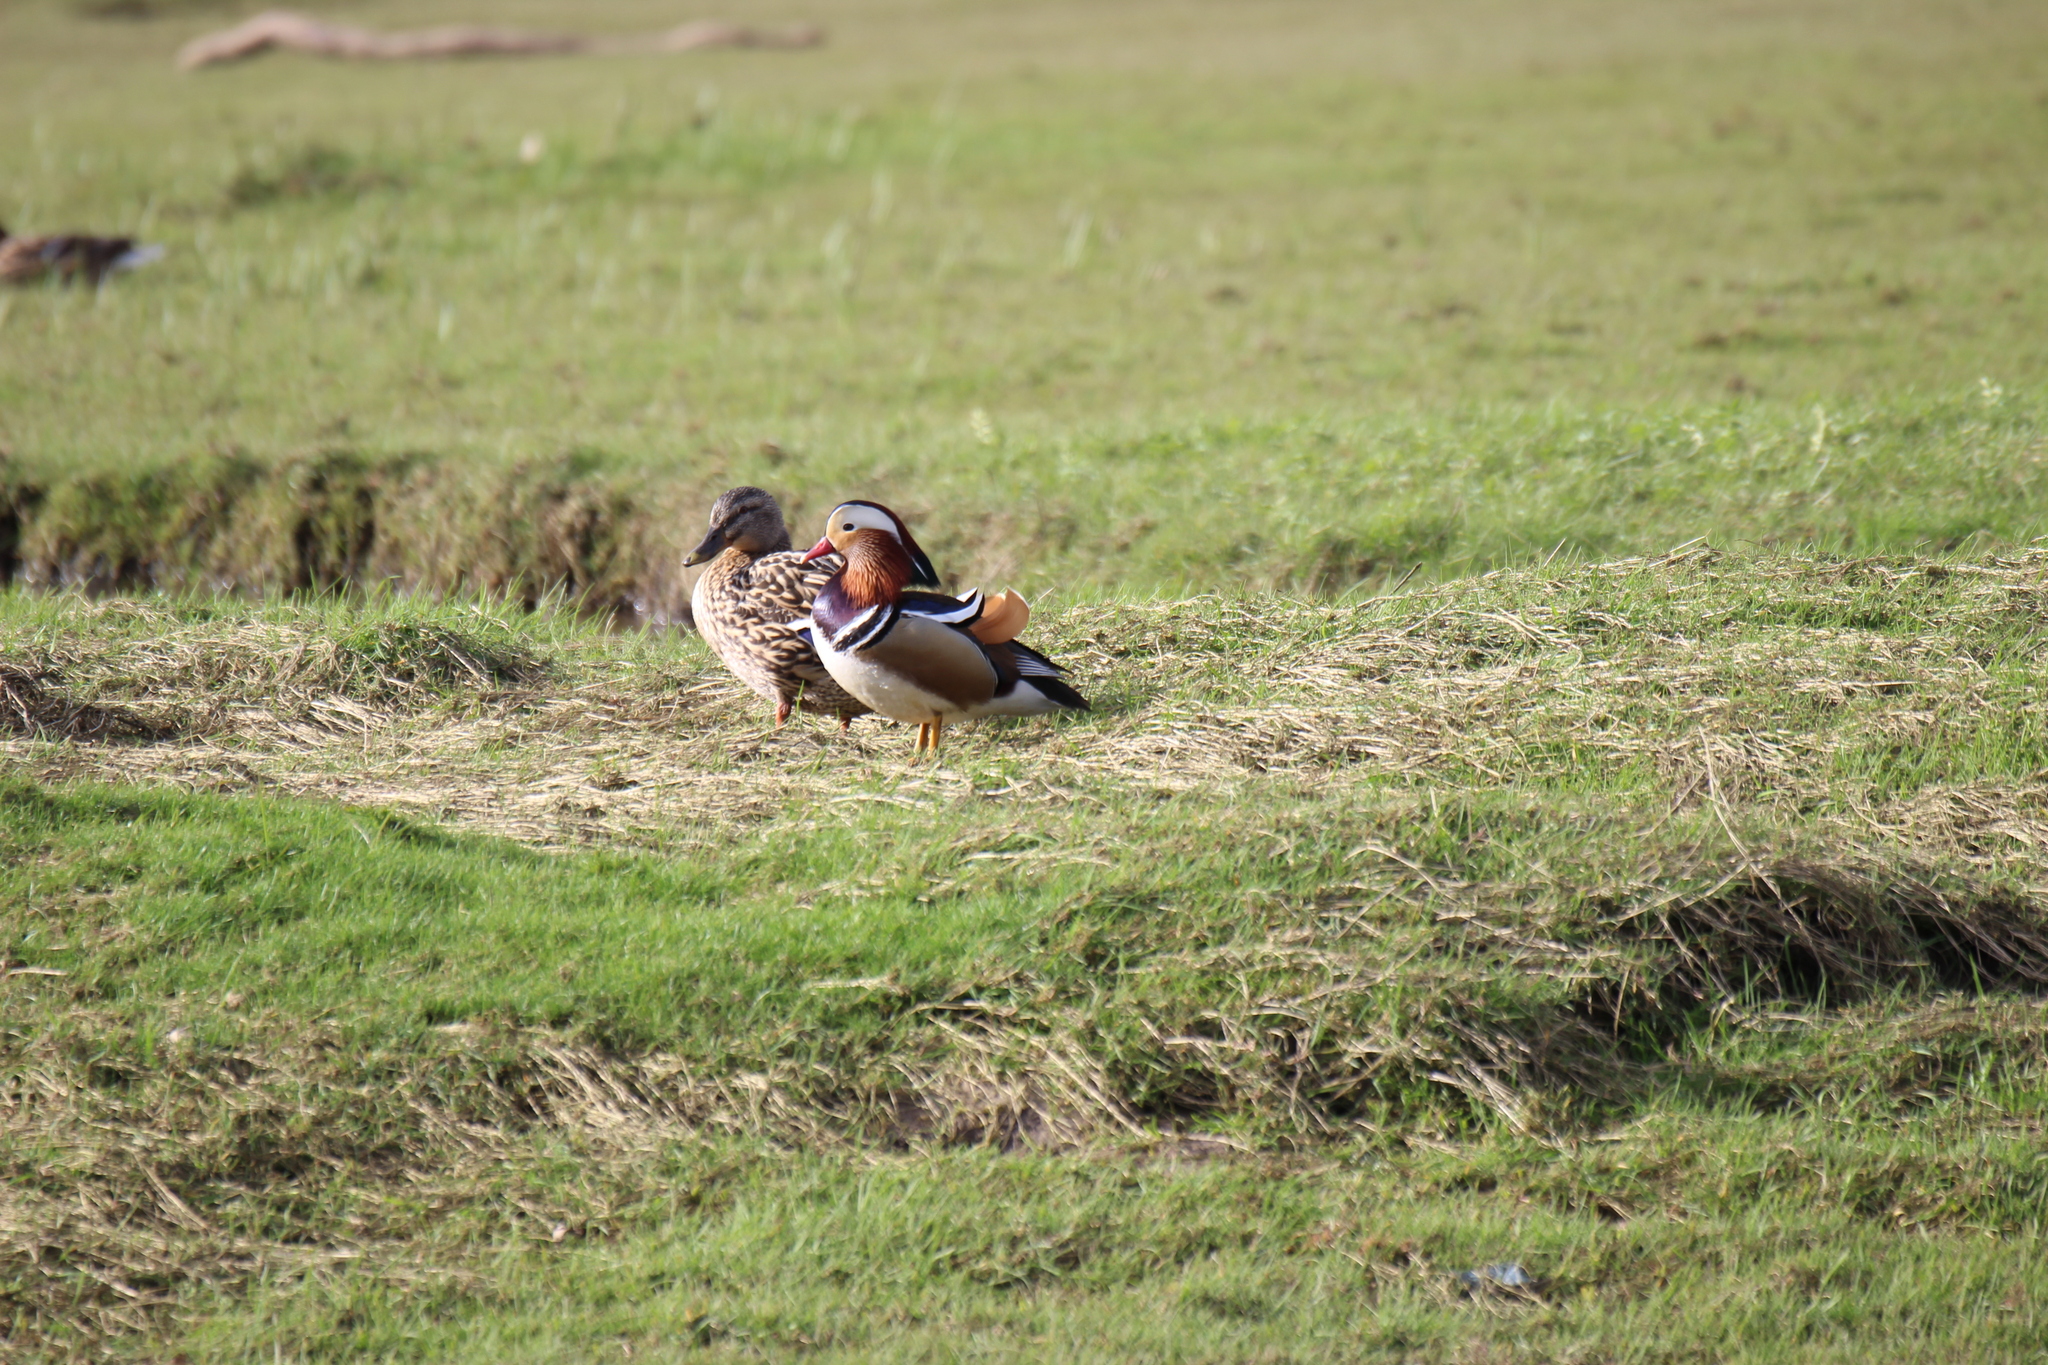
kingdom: Animalia
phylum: Chordata
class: Aves
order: Anseriformes
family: Anatidae
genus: Aix
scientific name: Aix galericulata
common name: Mandarin duck
